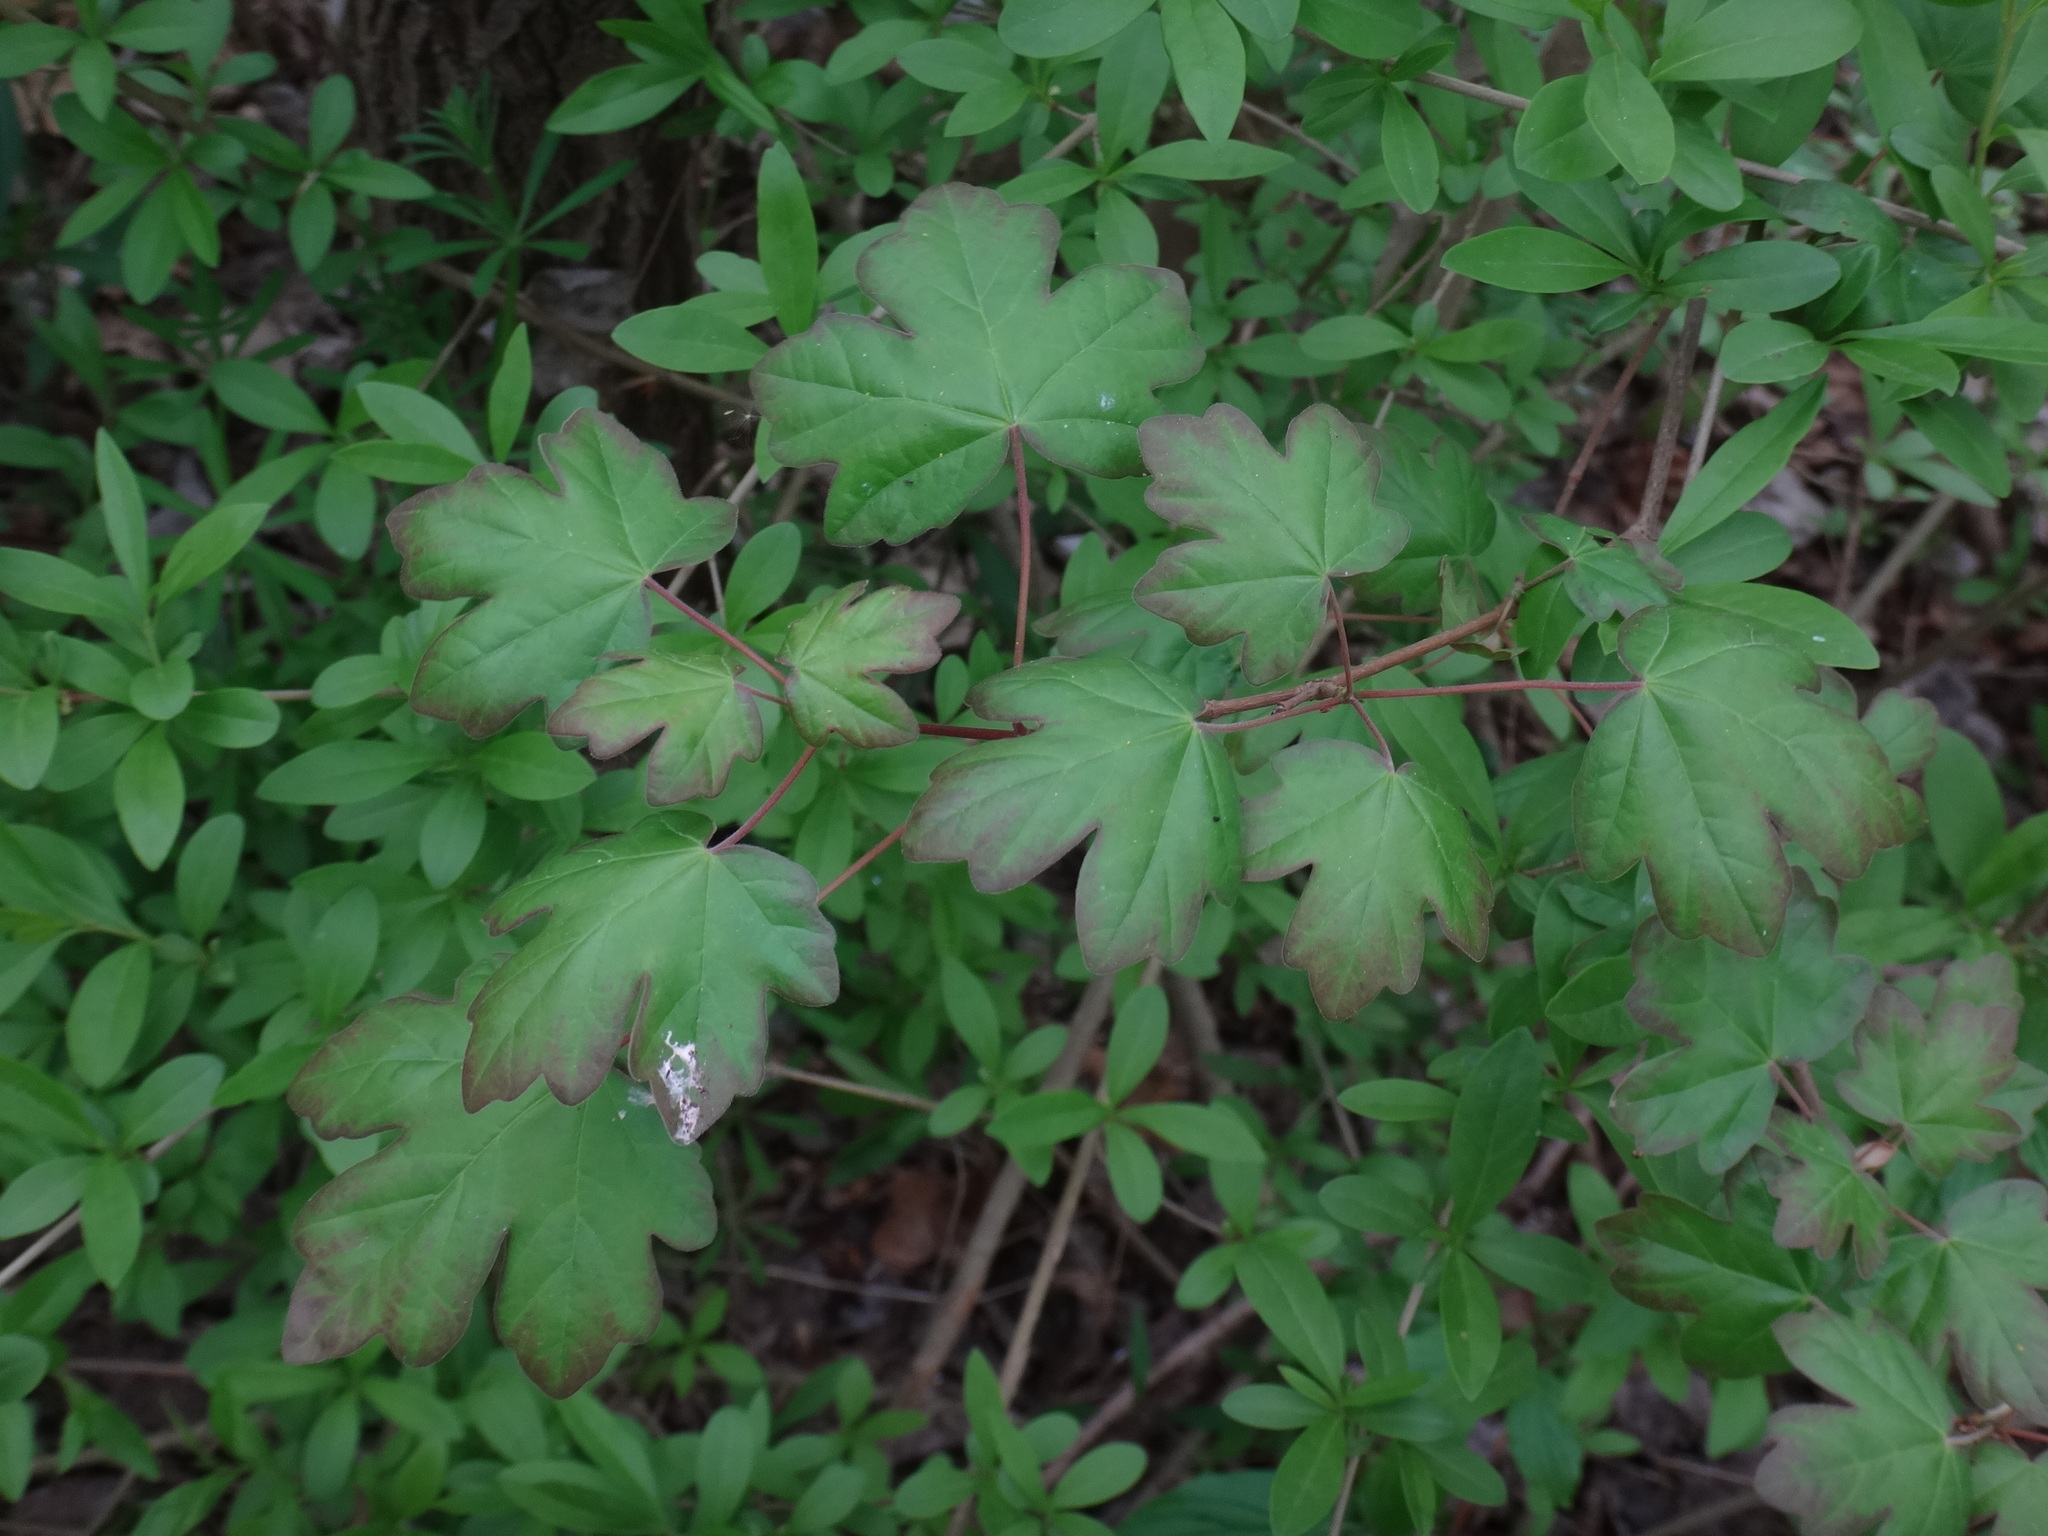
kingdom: Plantae
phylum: Tracheophyta
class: Magnoliopsida
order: Sapindales
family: Sapindaceae
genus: Acer
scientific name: Acer campestre
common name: Field maple
